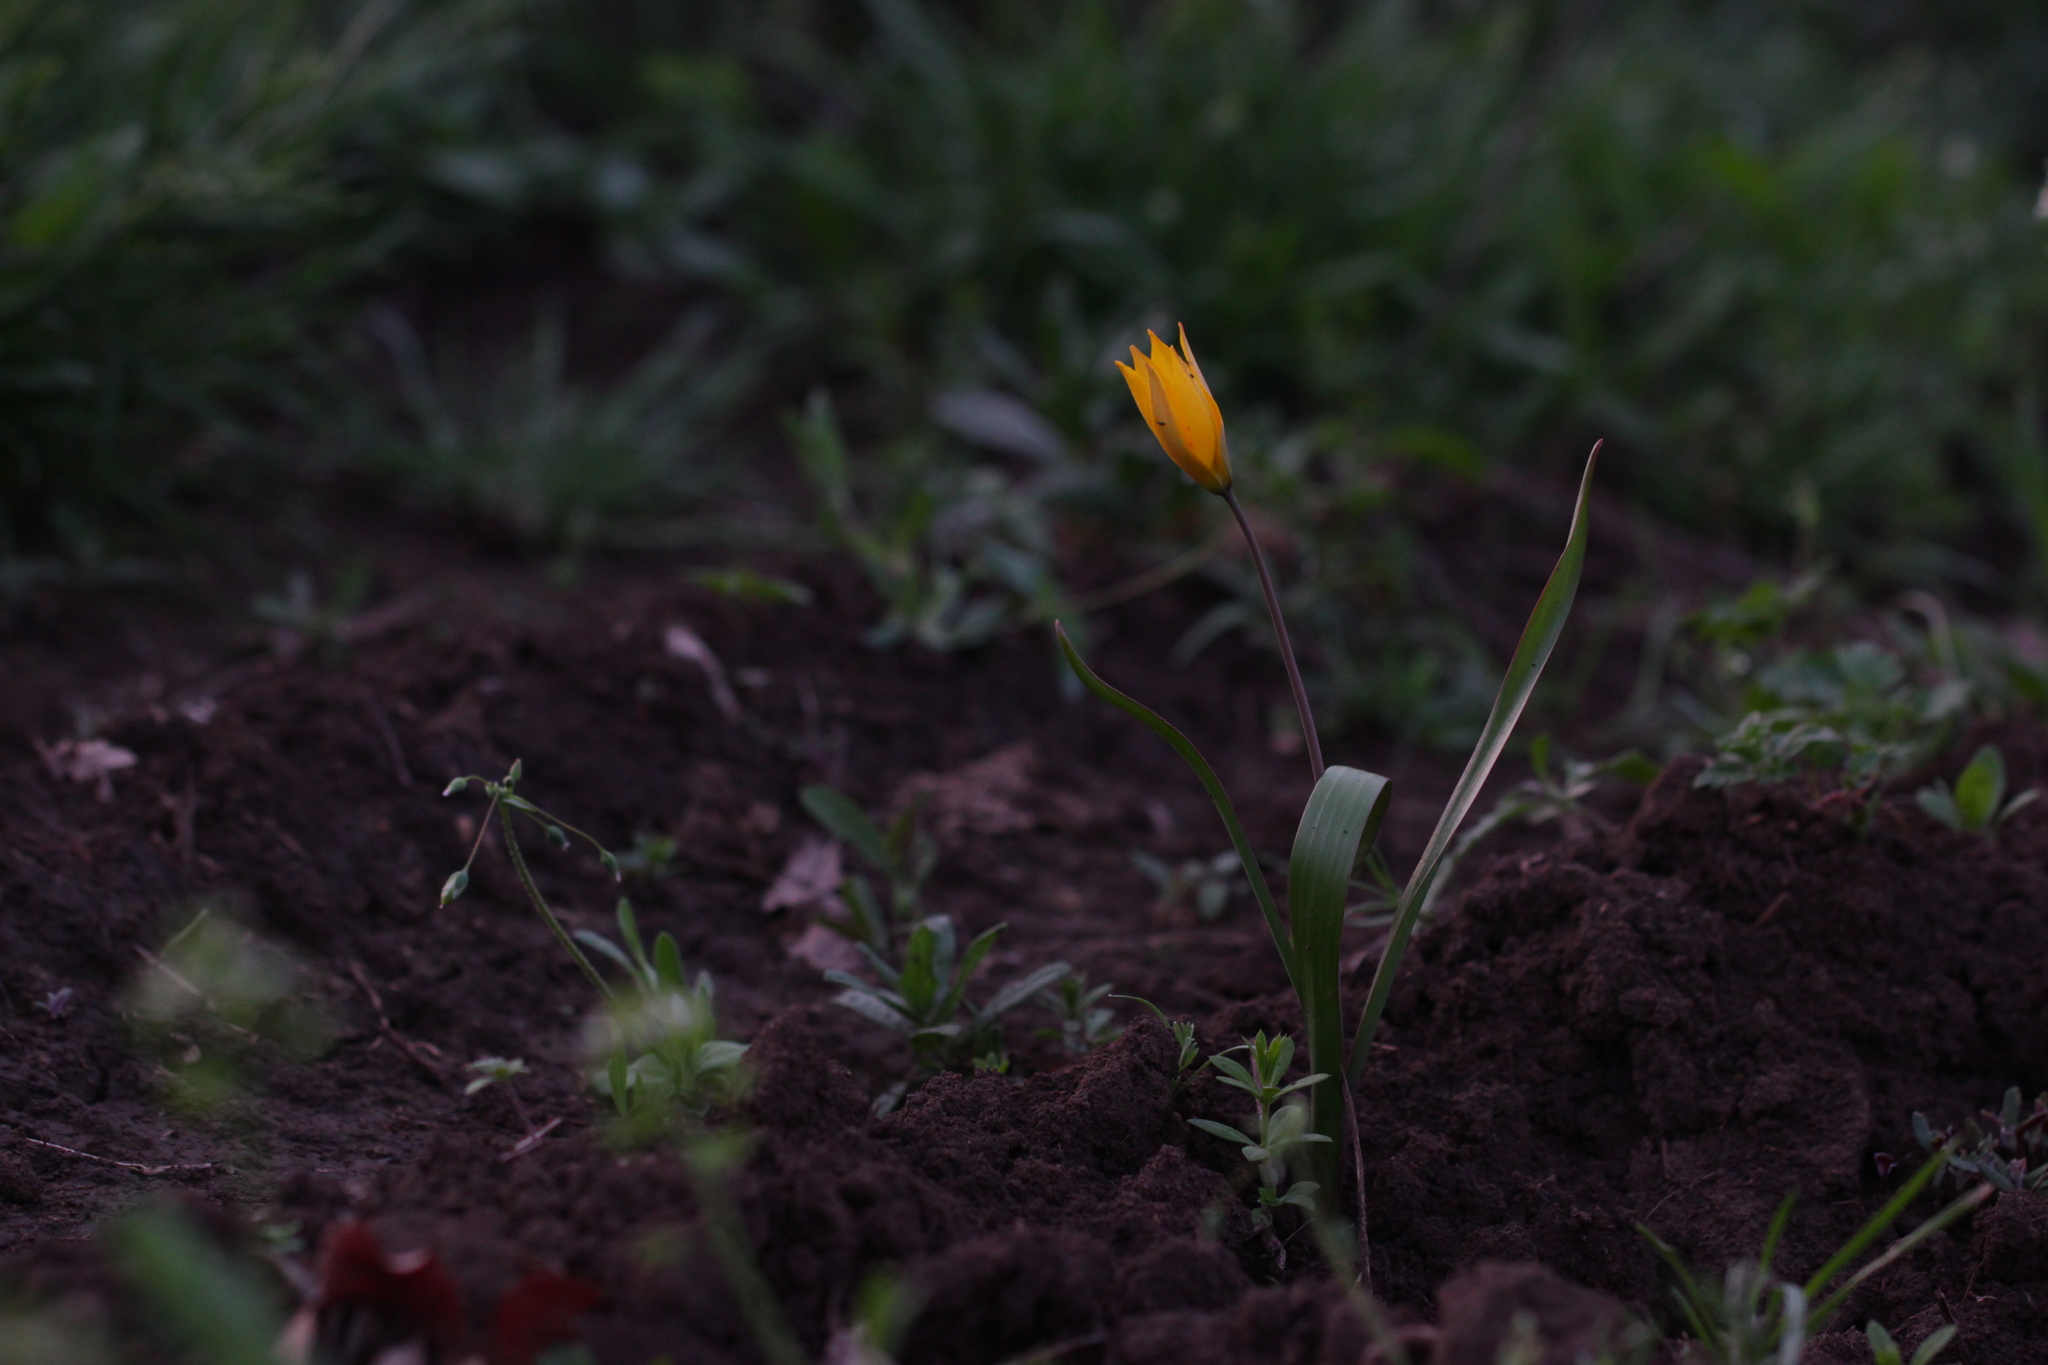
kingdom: Plantae
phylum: Tracheophyta
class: Liliopsida
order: Liliales
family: Liliaceae
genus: Tulipa
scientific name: Tulipa sylvestris
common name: Wild tulip
